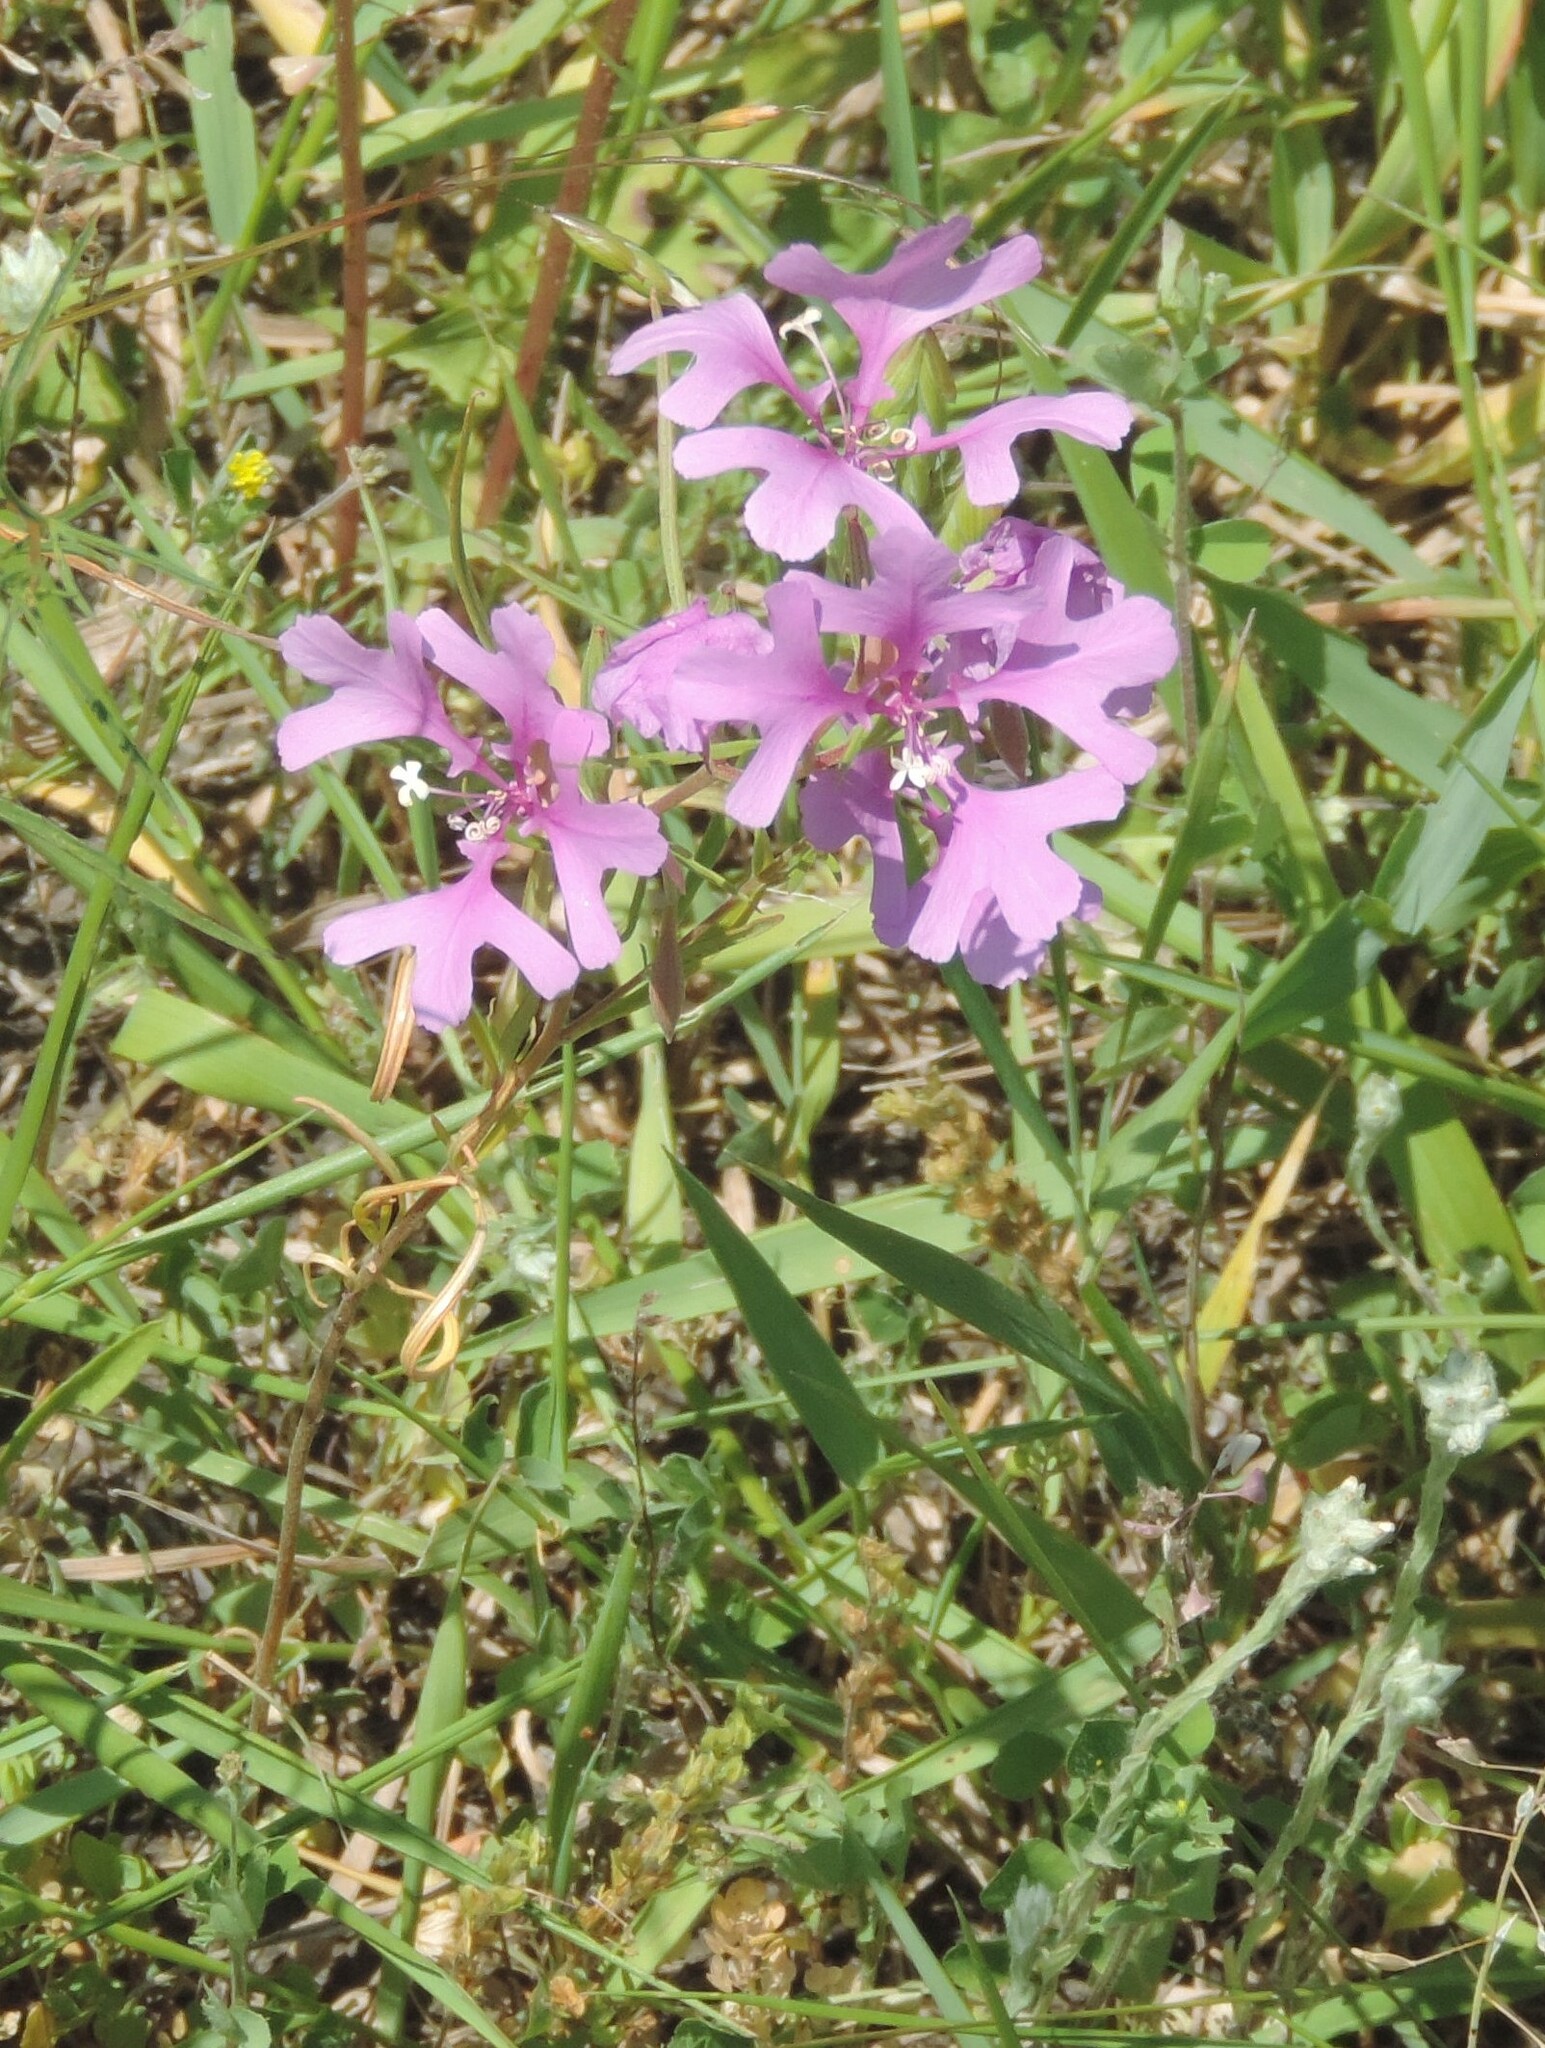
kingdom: Plantae
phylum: Tracheophyta
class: Magnoliopsida
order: Myrtales
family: Onagraceae
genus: Clarkia
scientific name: Clarkia pulchella
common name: Deer horn
